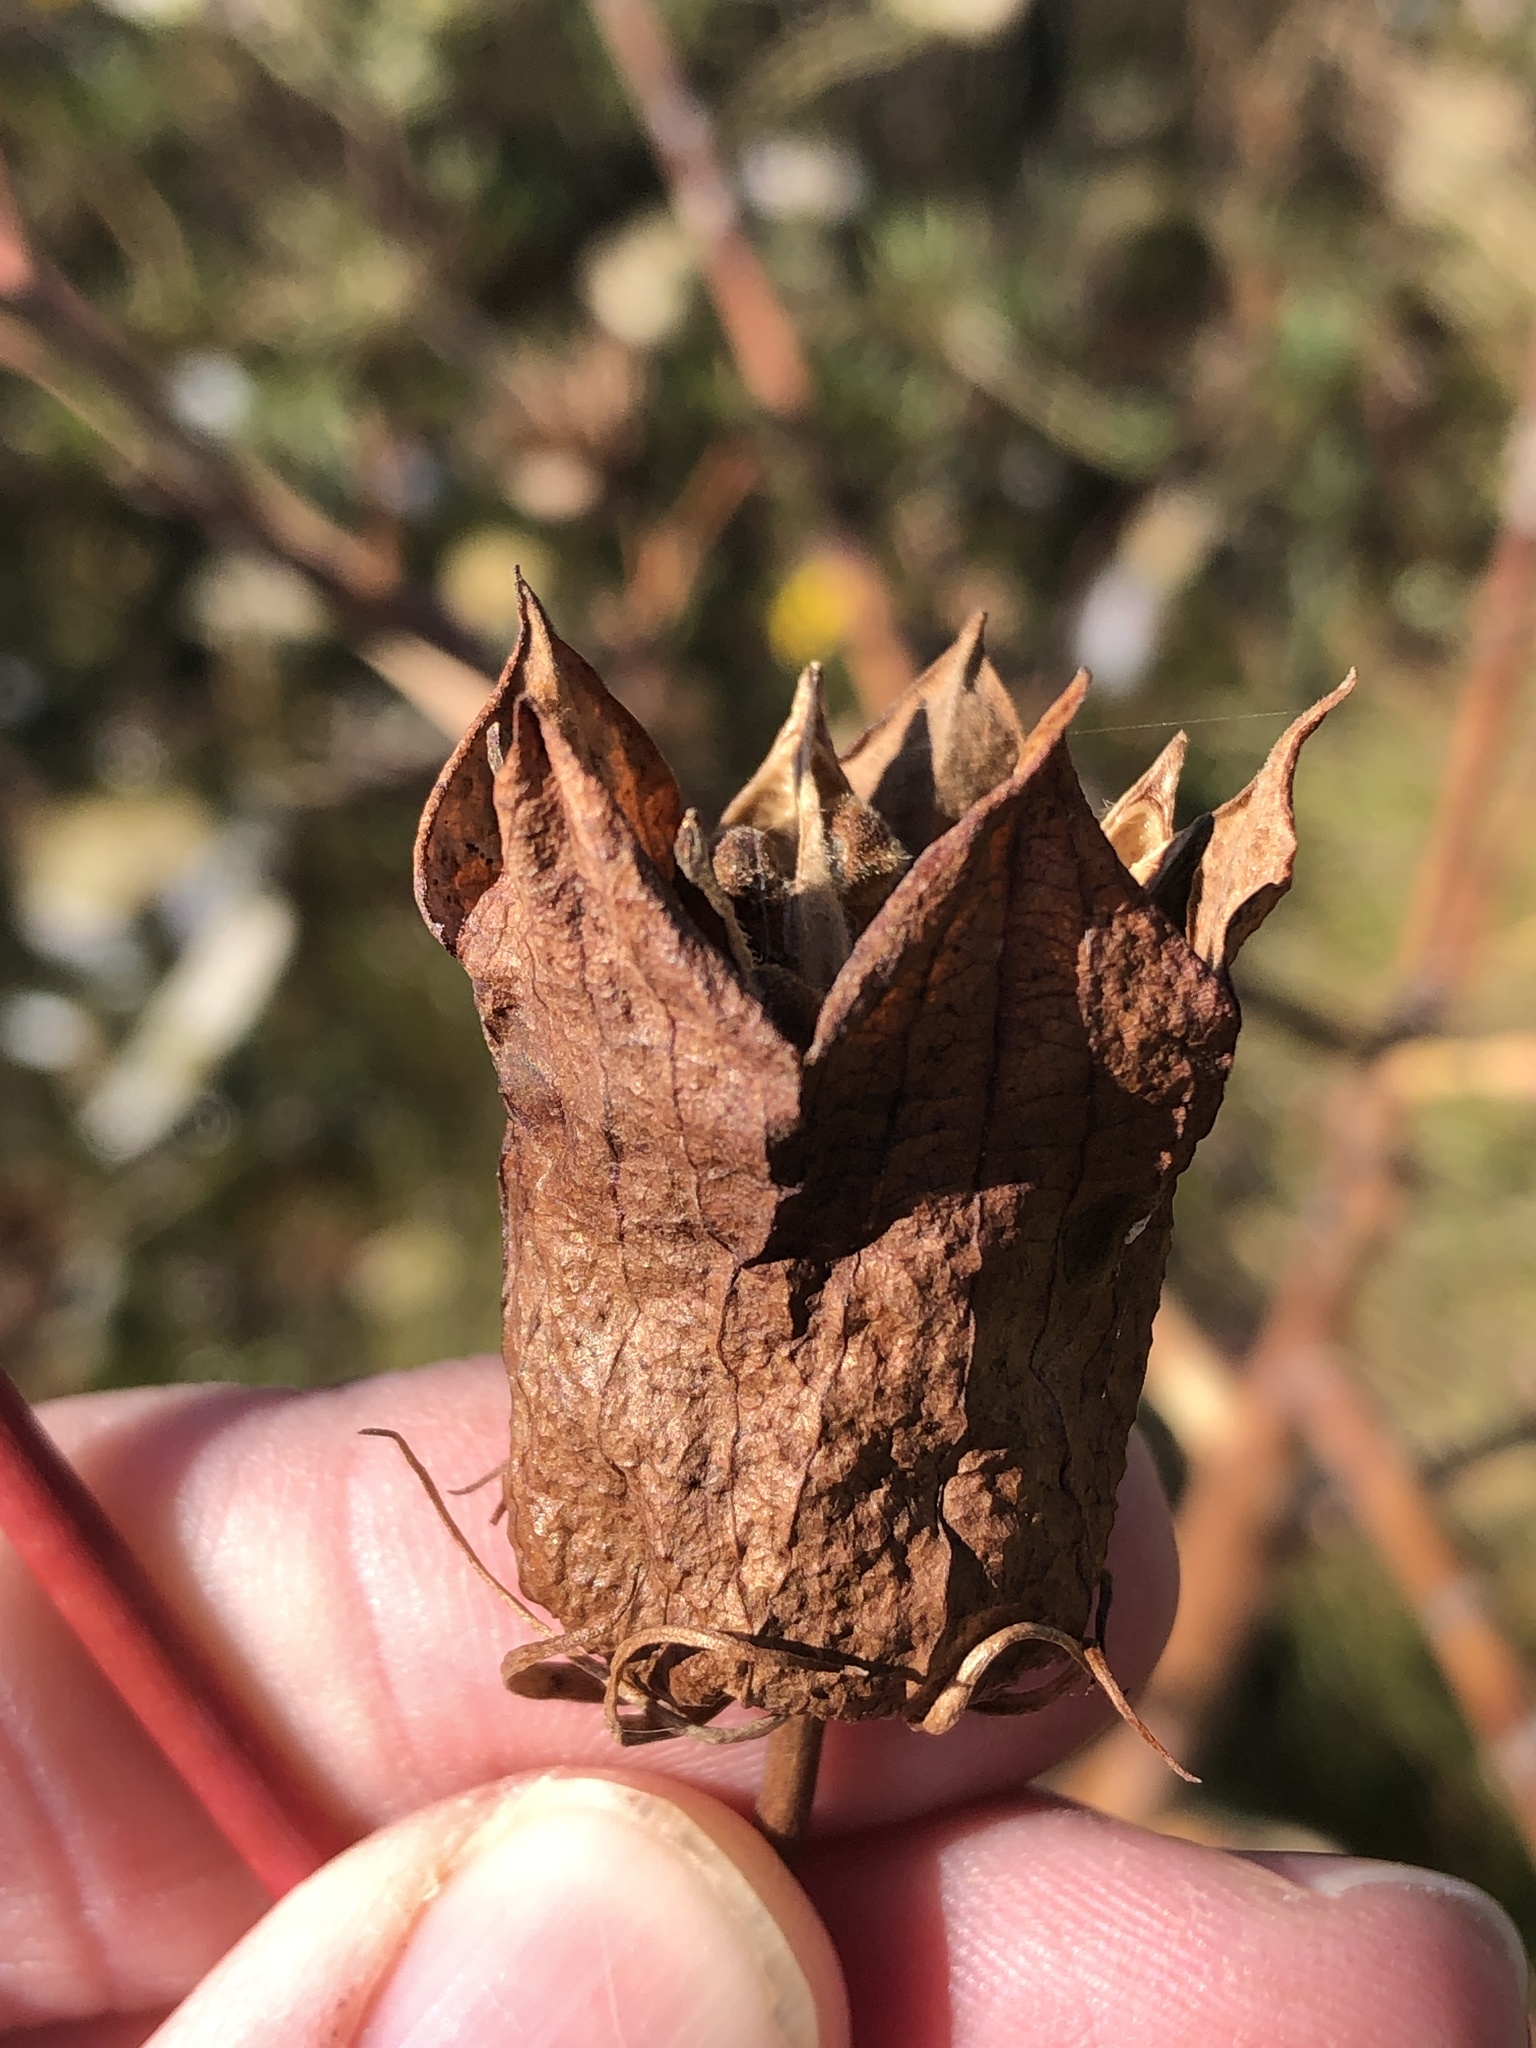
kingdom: Plantae
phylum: Tracheophyta
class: Magnoliopsida
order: Malvales
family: Malvaceae
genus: Hibiscus
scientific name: Hibiscus laevis
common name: Scarlet rose-mallow
